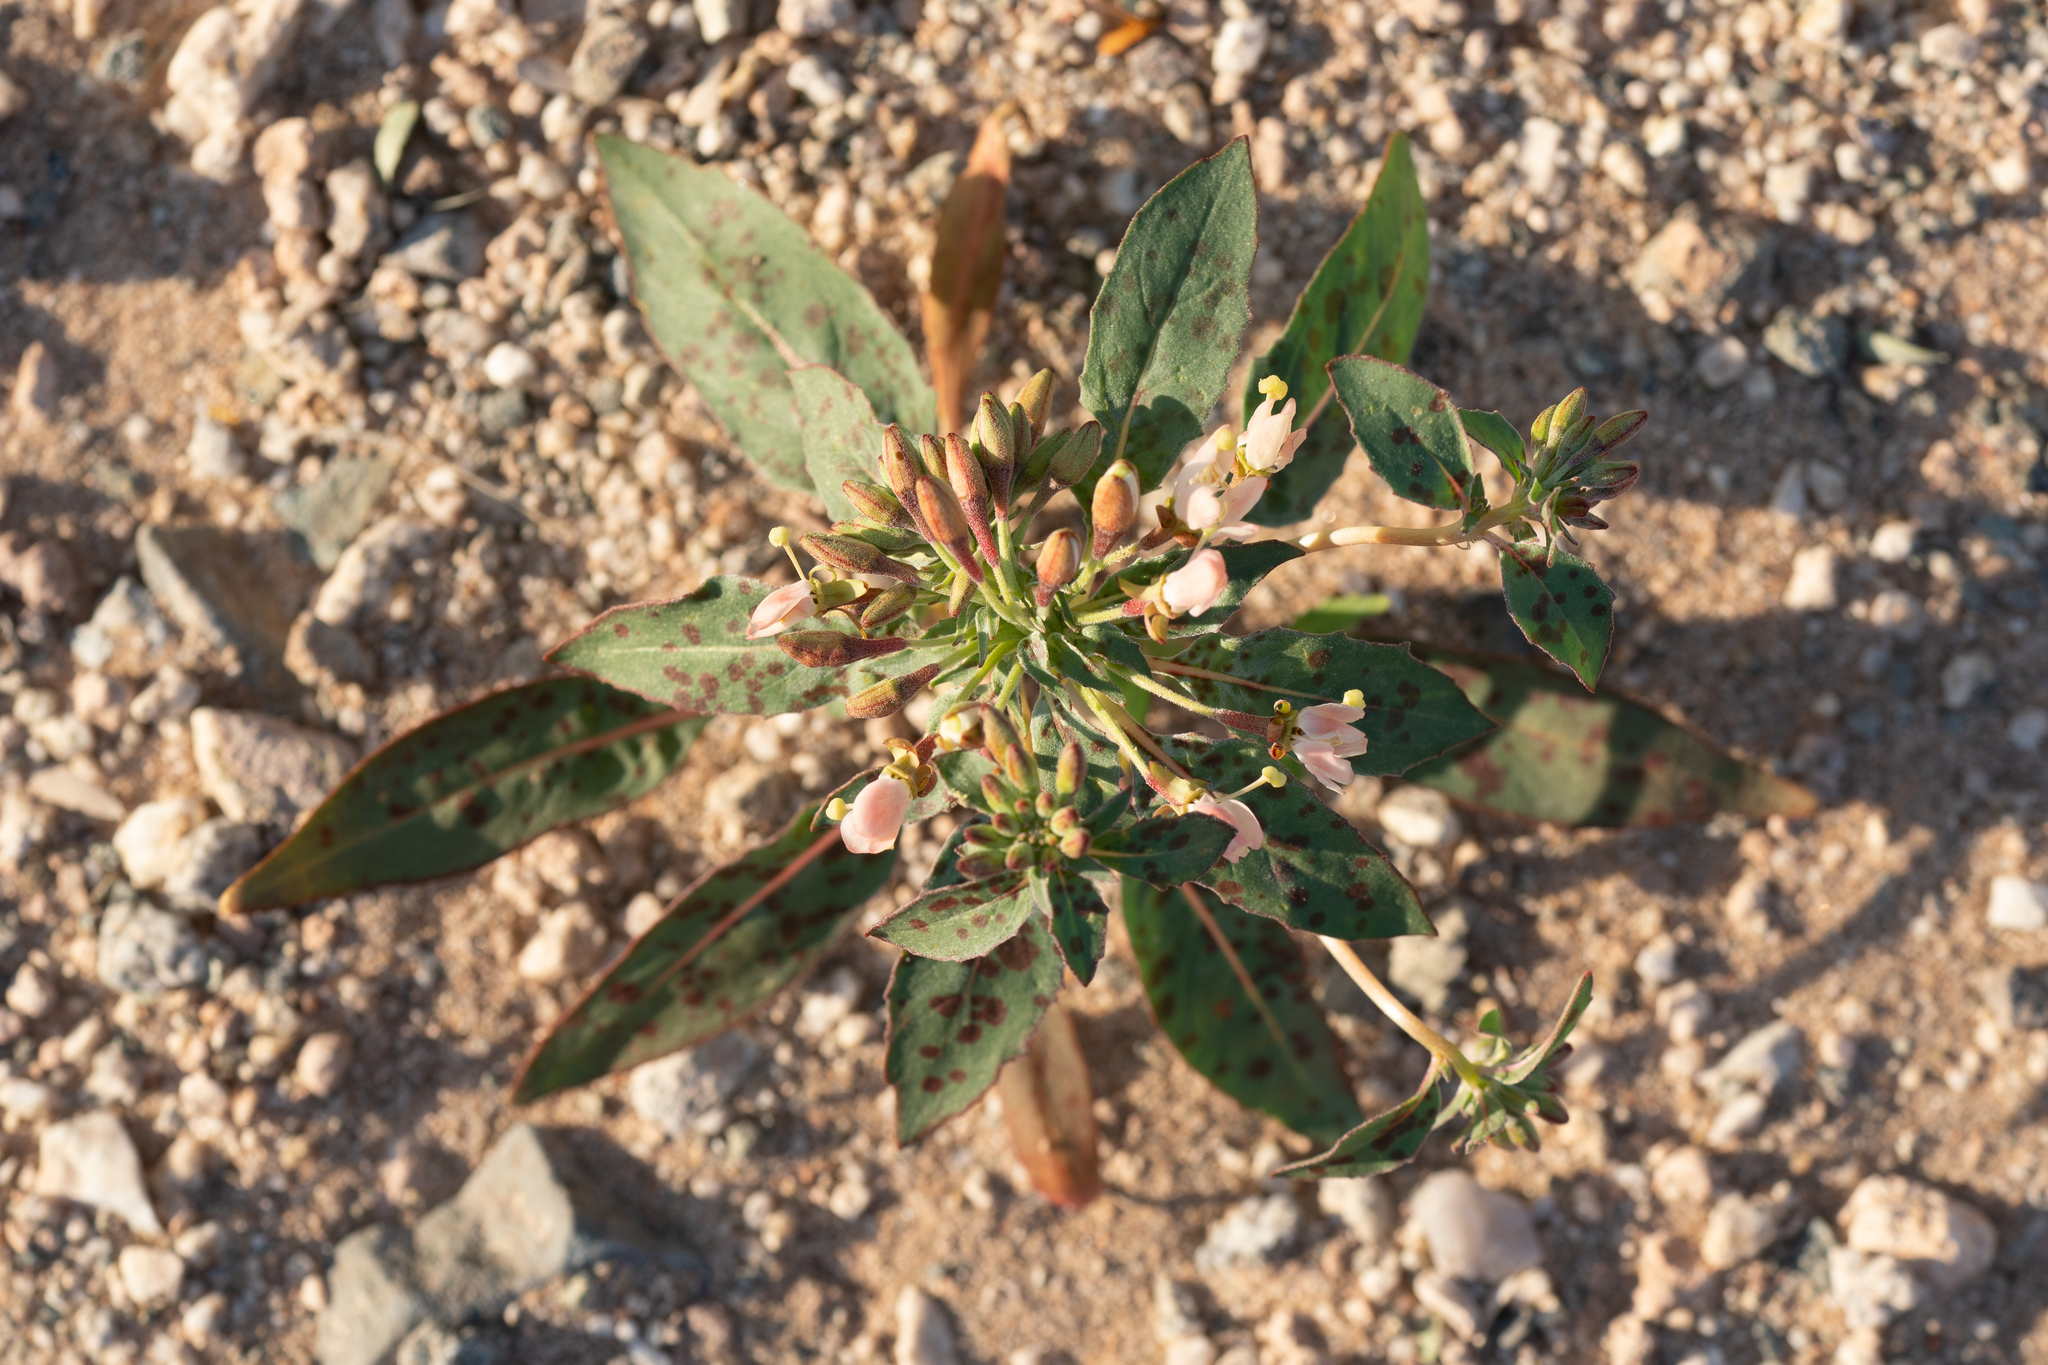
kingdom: Plantae
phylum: Tracheophyta
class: Magnoliopsida
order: Myrtales
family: Onagraceae
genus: Eremothera
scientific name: Eremothera boothii
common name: Booth's evening primrose
